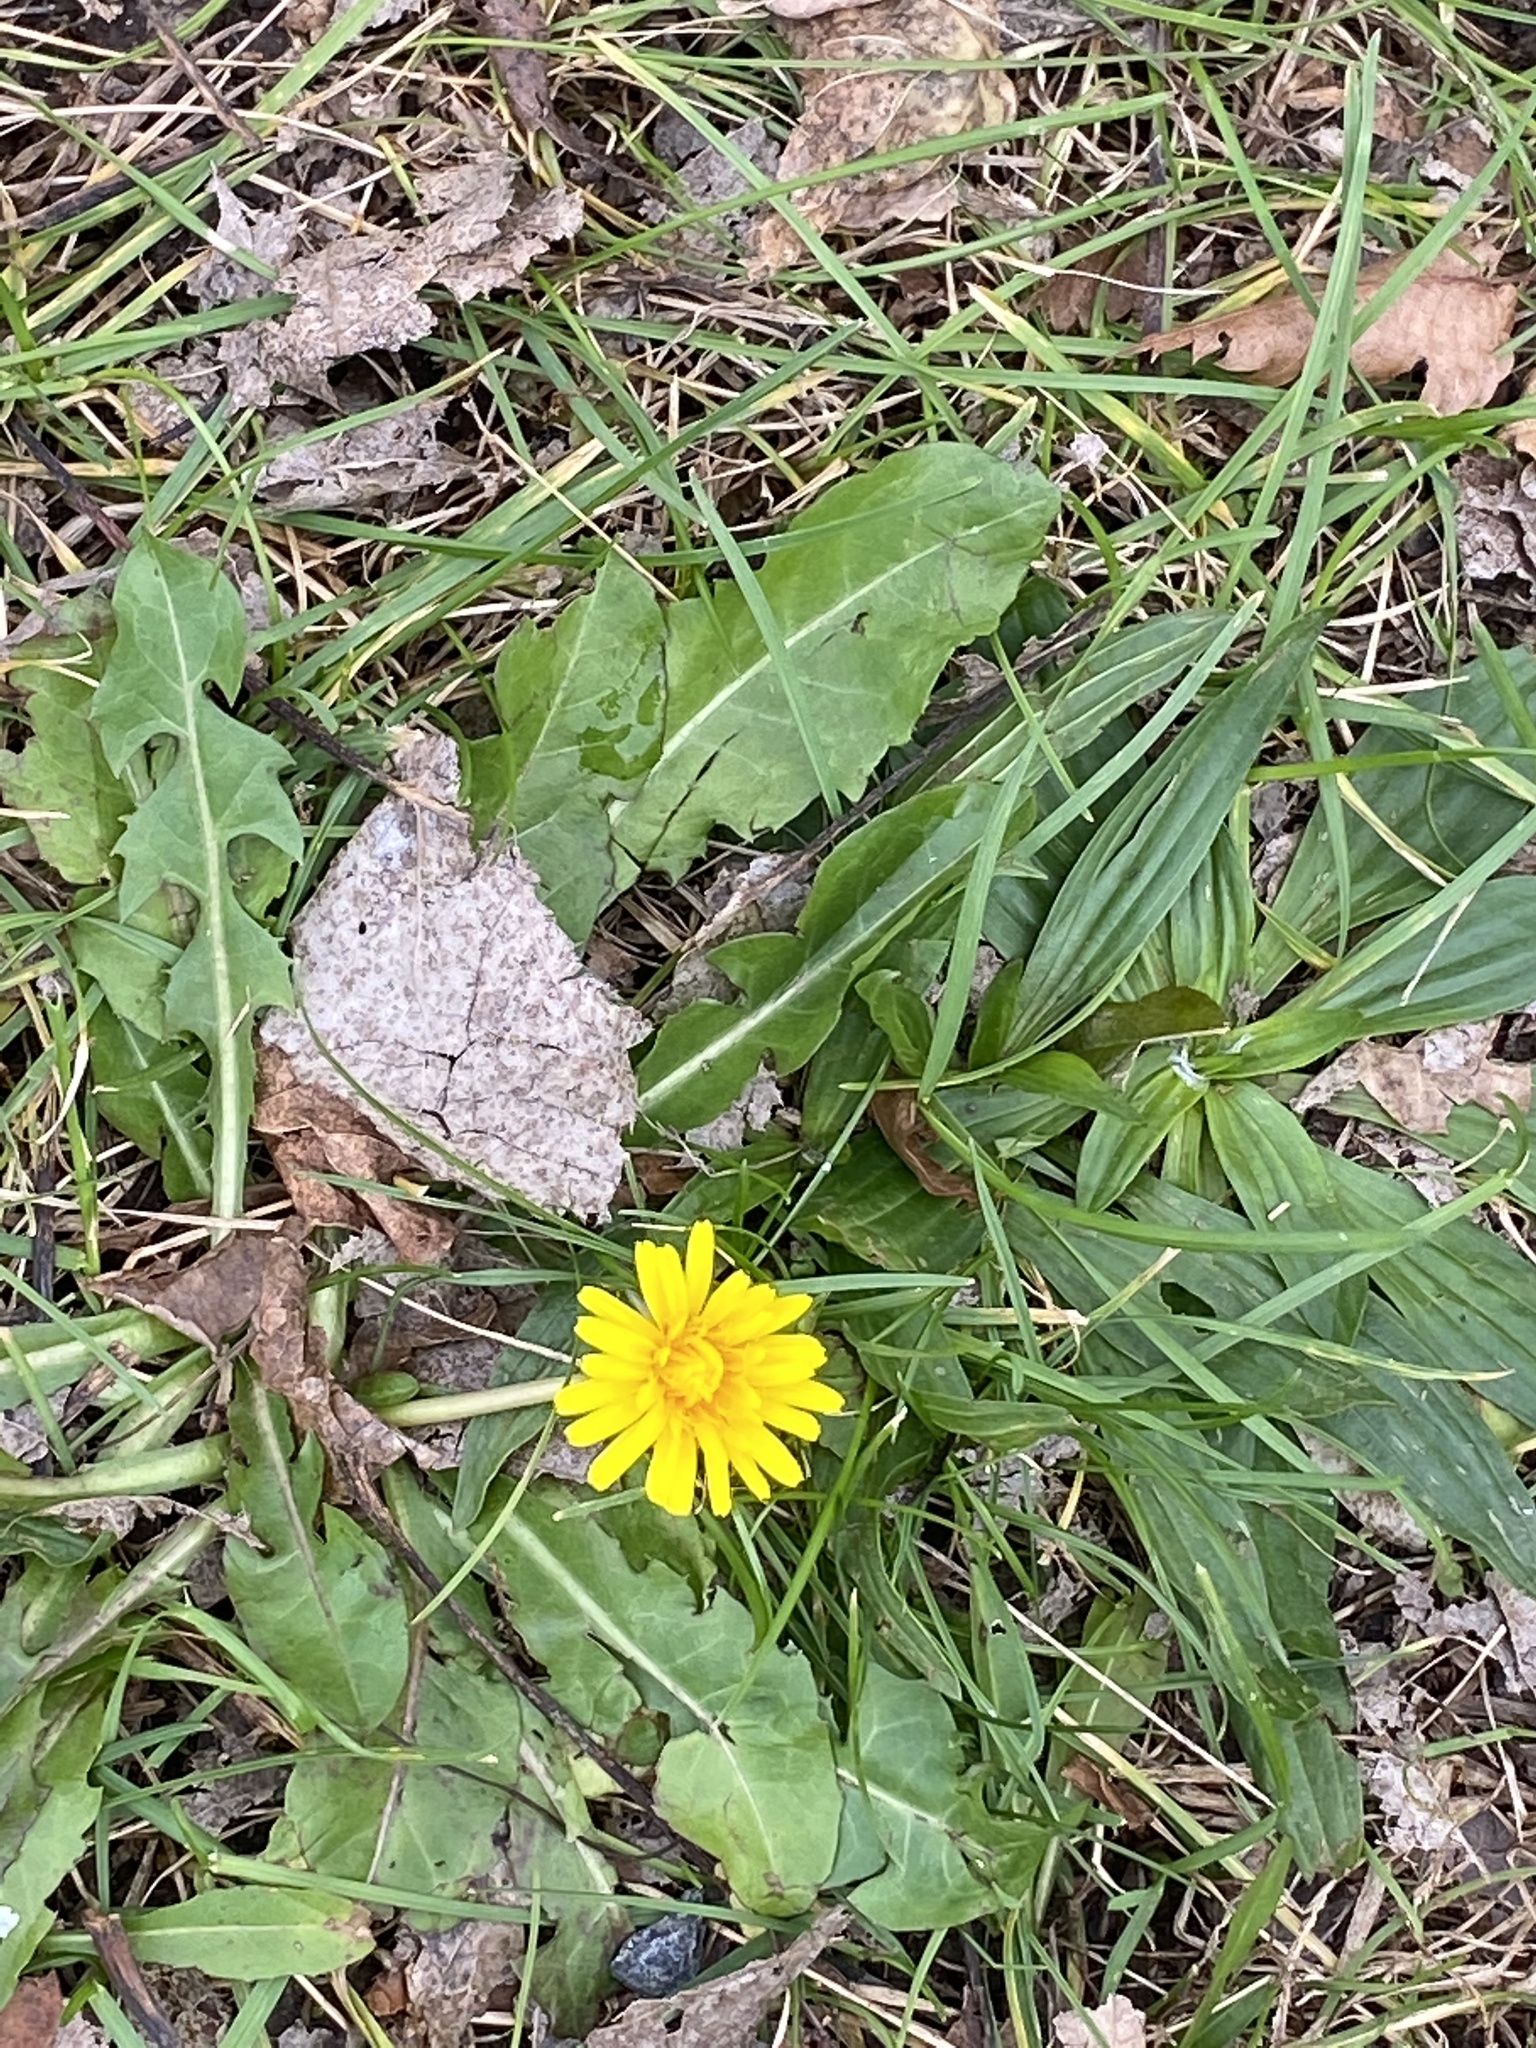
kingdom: Plantae
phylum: Tracheophyta
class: Magnoliopsida
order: Asterales
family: Asteraceae
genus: Taraxacum
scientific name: Taraxacum officinale
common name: Common dandelion
